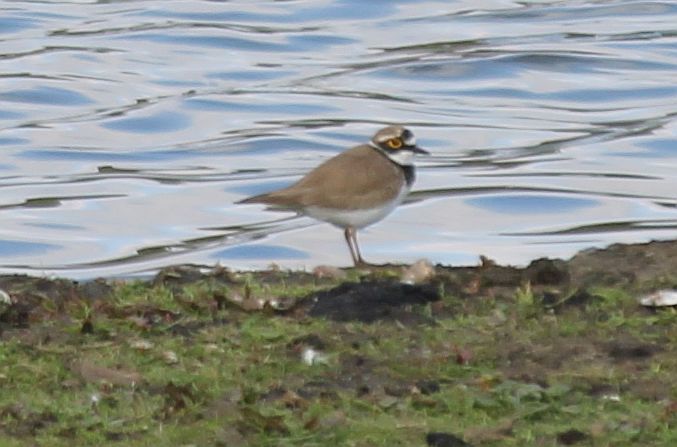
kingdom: Animalia
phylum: Chordata
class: Aves
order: Charadriiformes
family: Charadriidae
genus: Charadrius
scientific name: Charadrius dubius
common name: Little ringed plover
